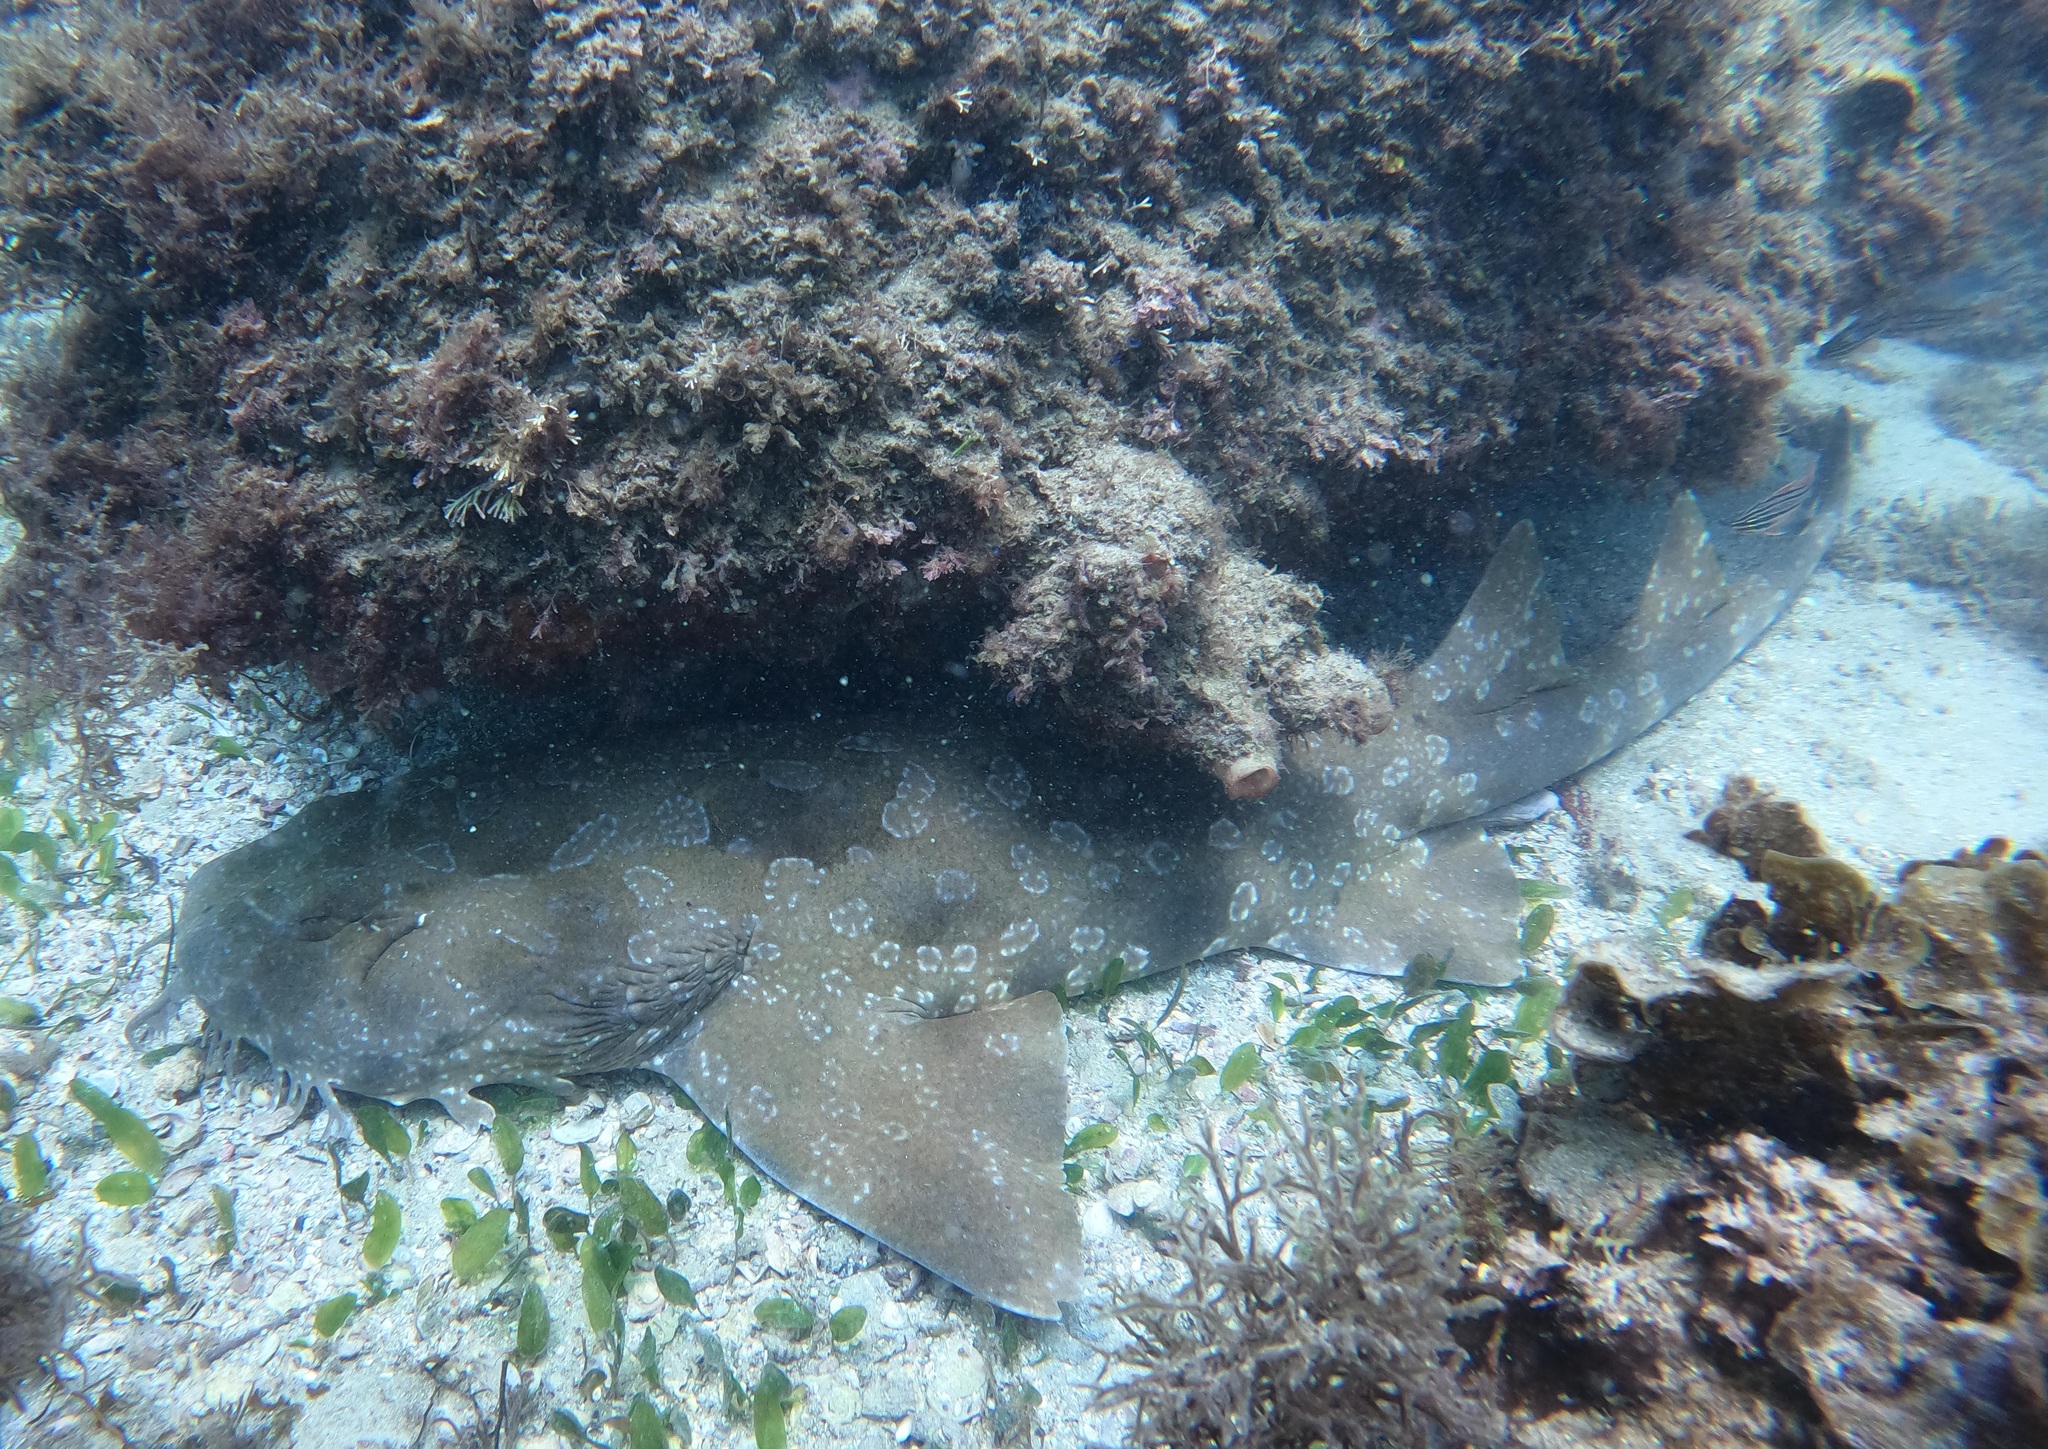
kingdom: Animalia
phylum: Chordata
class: Elasmobranchii
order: Orectolobiformes
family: Orectolobidae
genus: Orectolobus
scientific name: Orectolobus maculatus
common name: Spotted wobbegong
